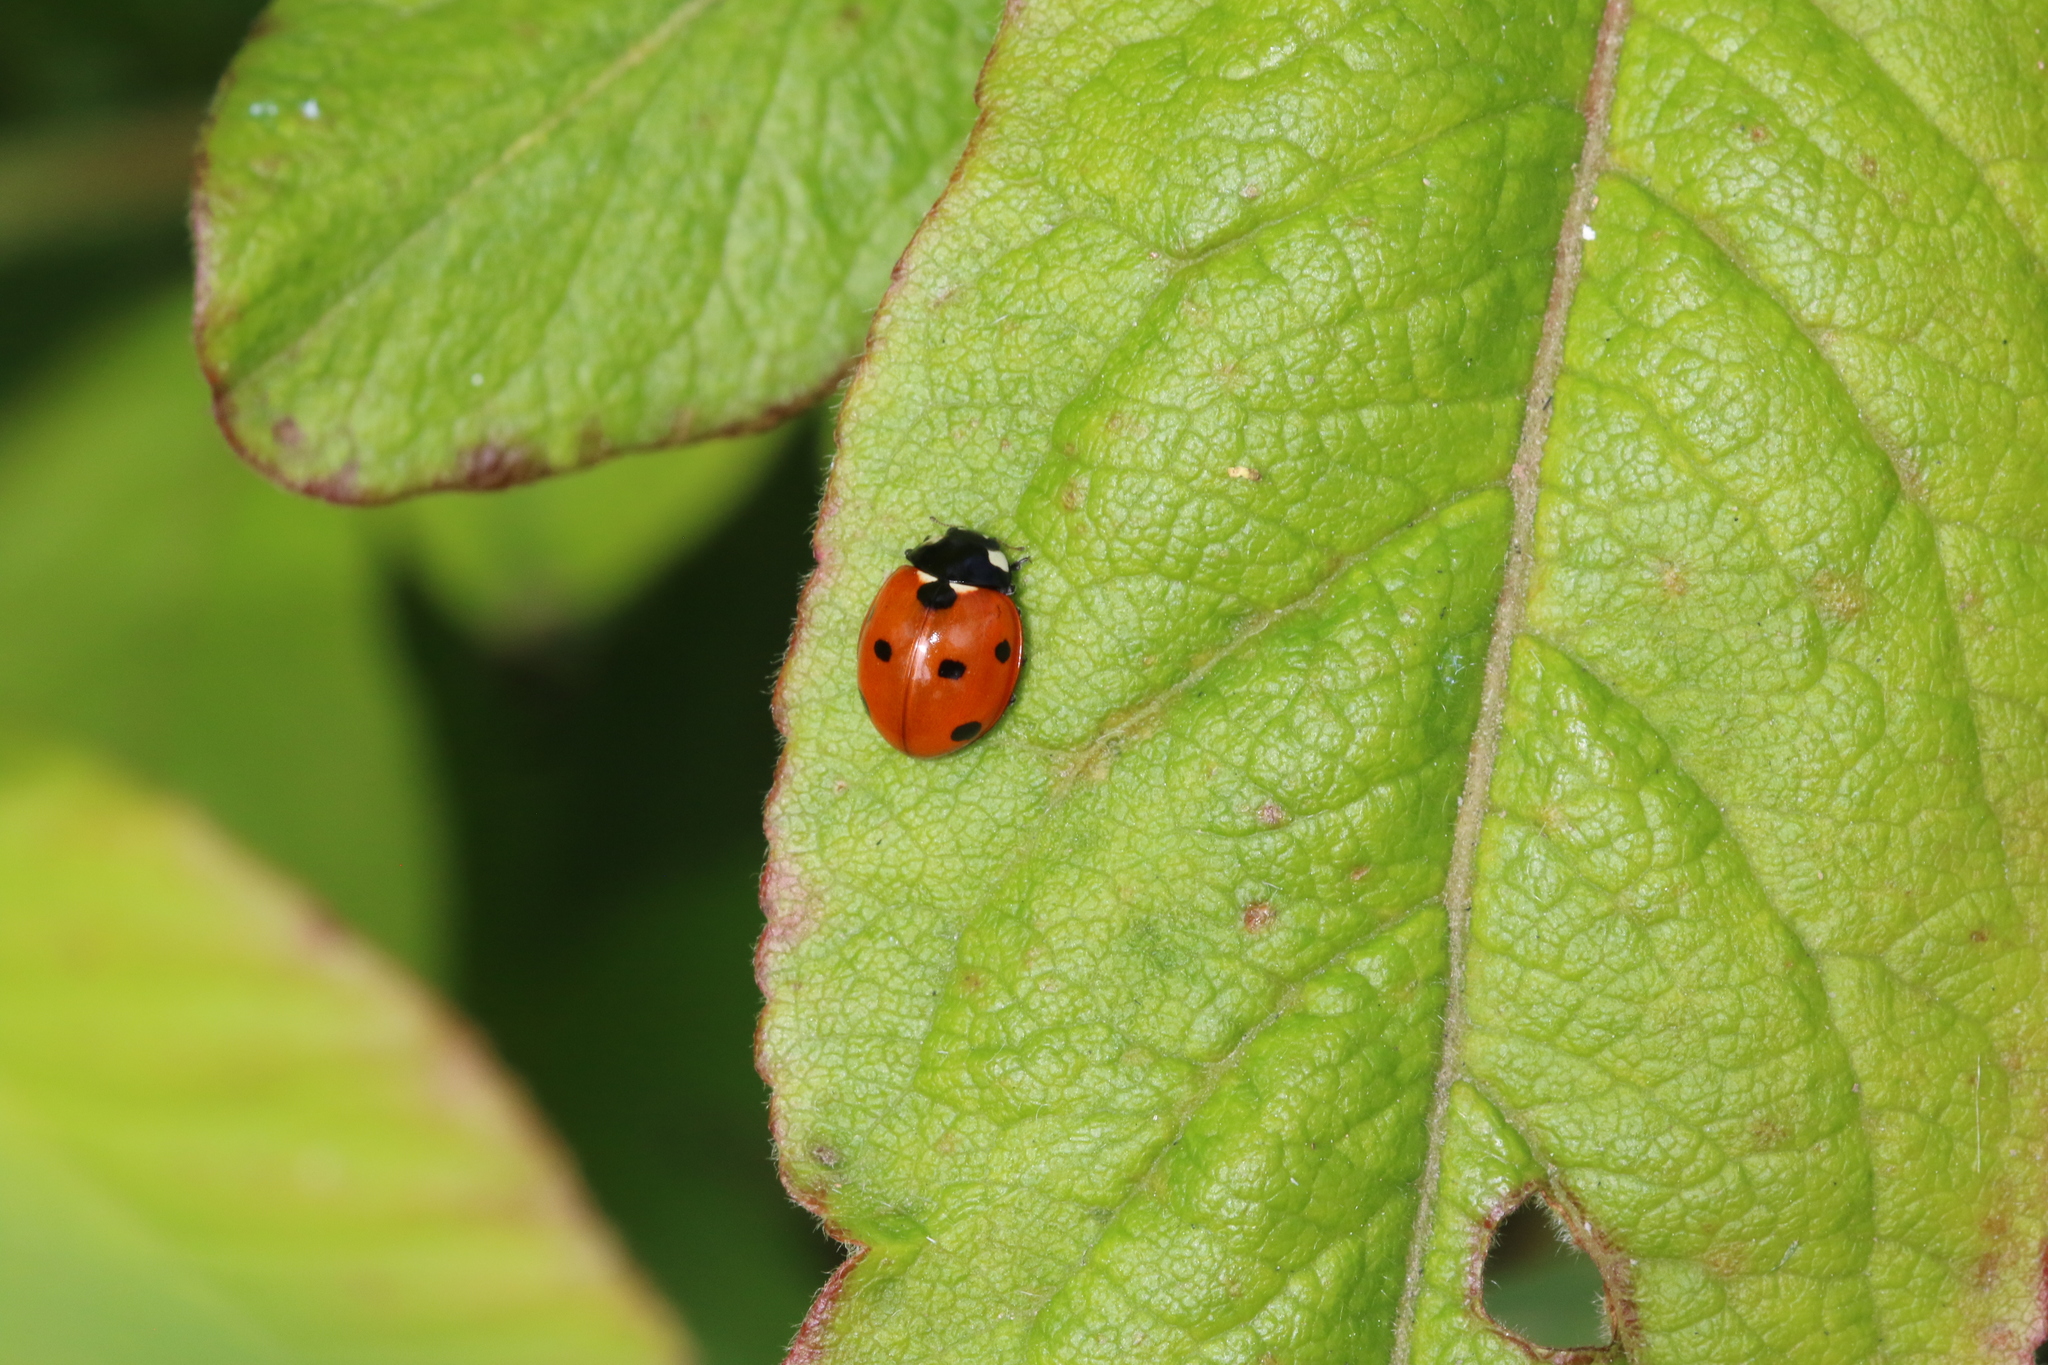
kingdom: Animalia
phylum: Arthropoda
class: Insecta
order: Coleoptera
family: Coccinellidae
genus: Coccinella
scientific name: Coccinella septempunctata
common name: Sevenspotted lady beetle
